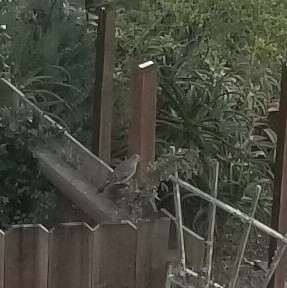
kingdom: Animalia
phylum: Chordata
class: Aves
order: Piciformes
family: Picidae
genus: Colaptes
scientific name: Colaptes auratus
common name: Northern flicker
